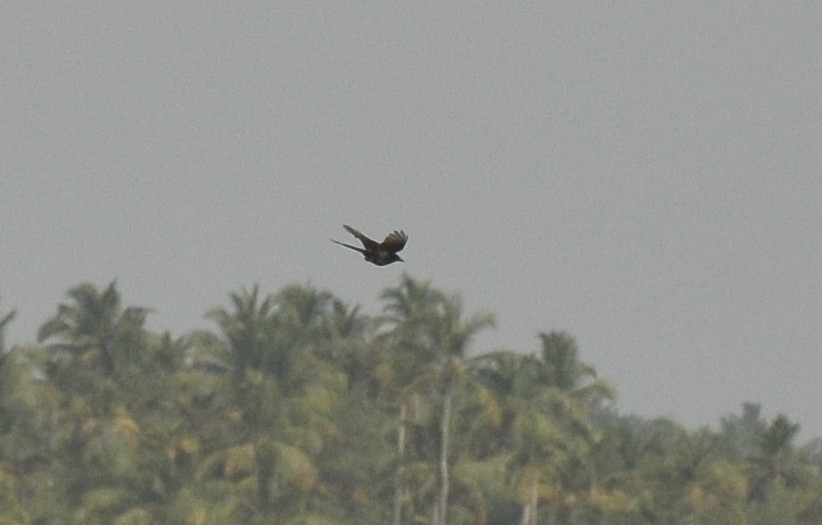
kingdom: Animalia
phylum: Chordata
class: Aves
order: Passeriformes
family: Dicruridae
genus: Dicrurus
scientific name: Dicrurus macrocercus
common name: Black drongo
